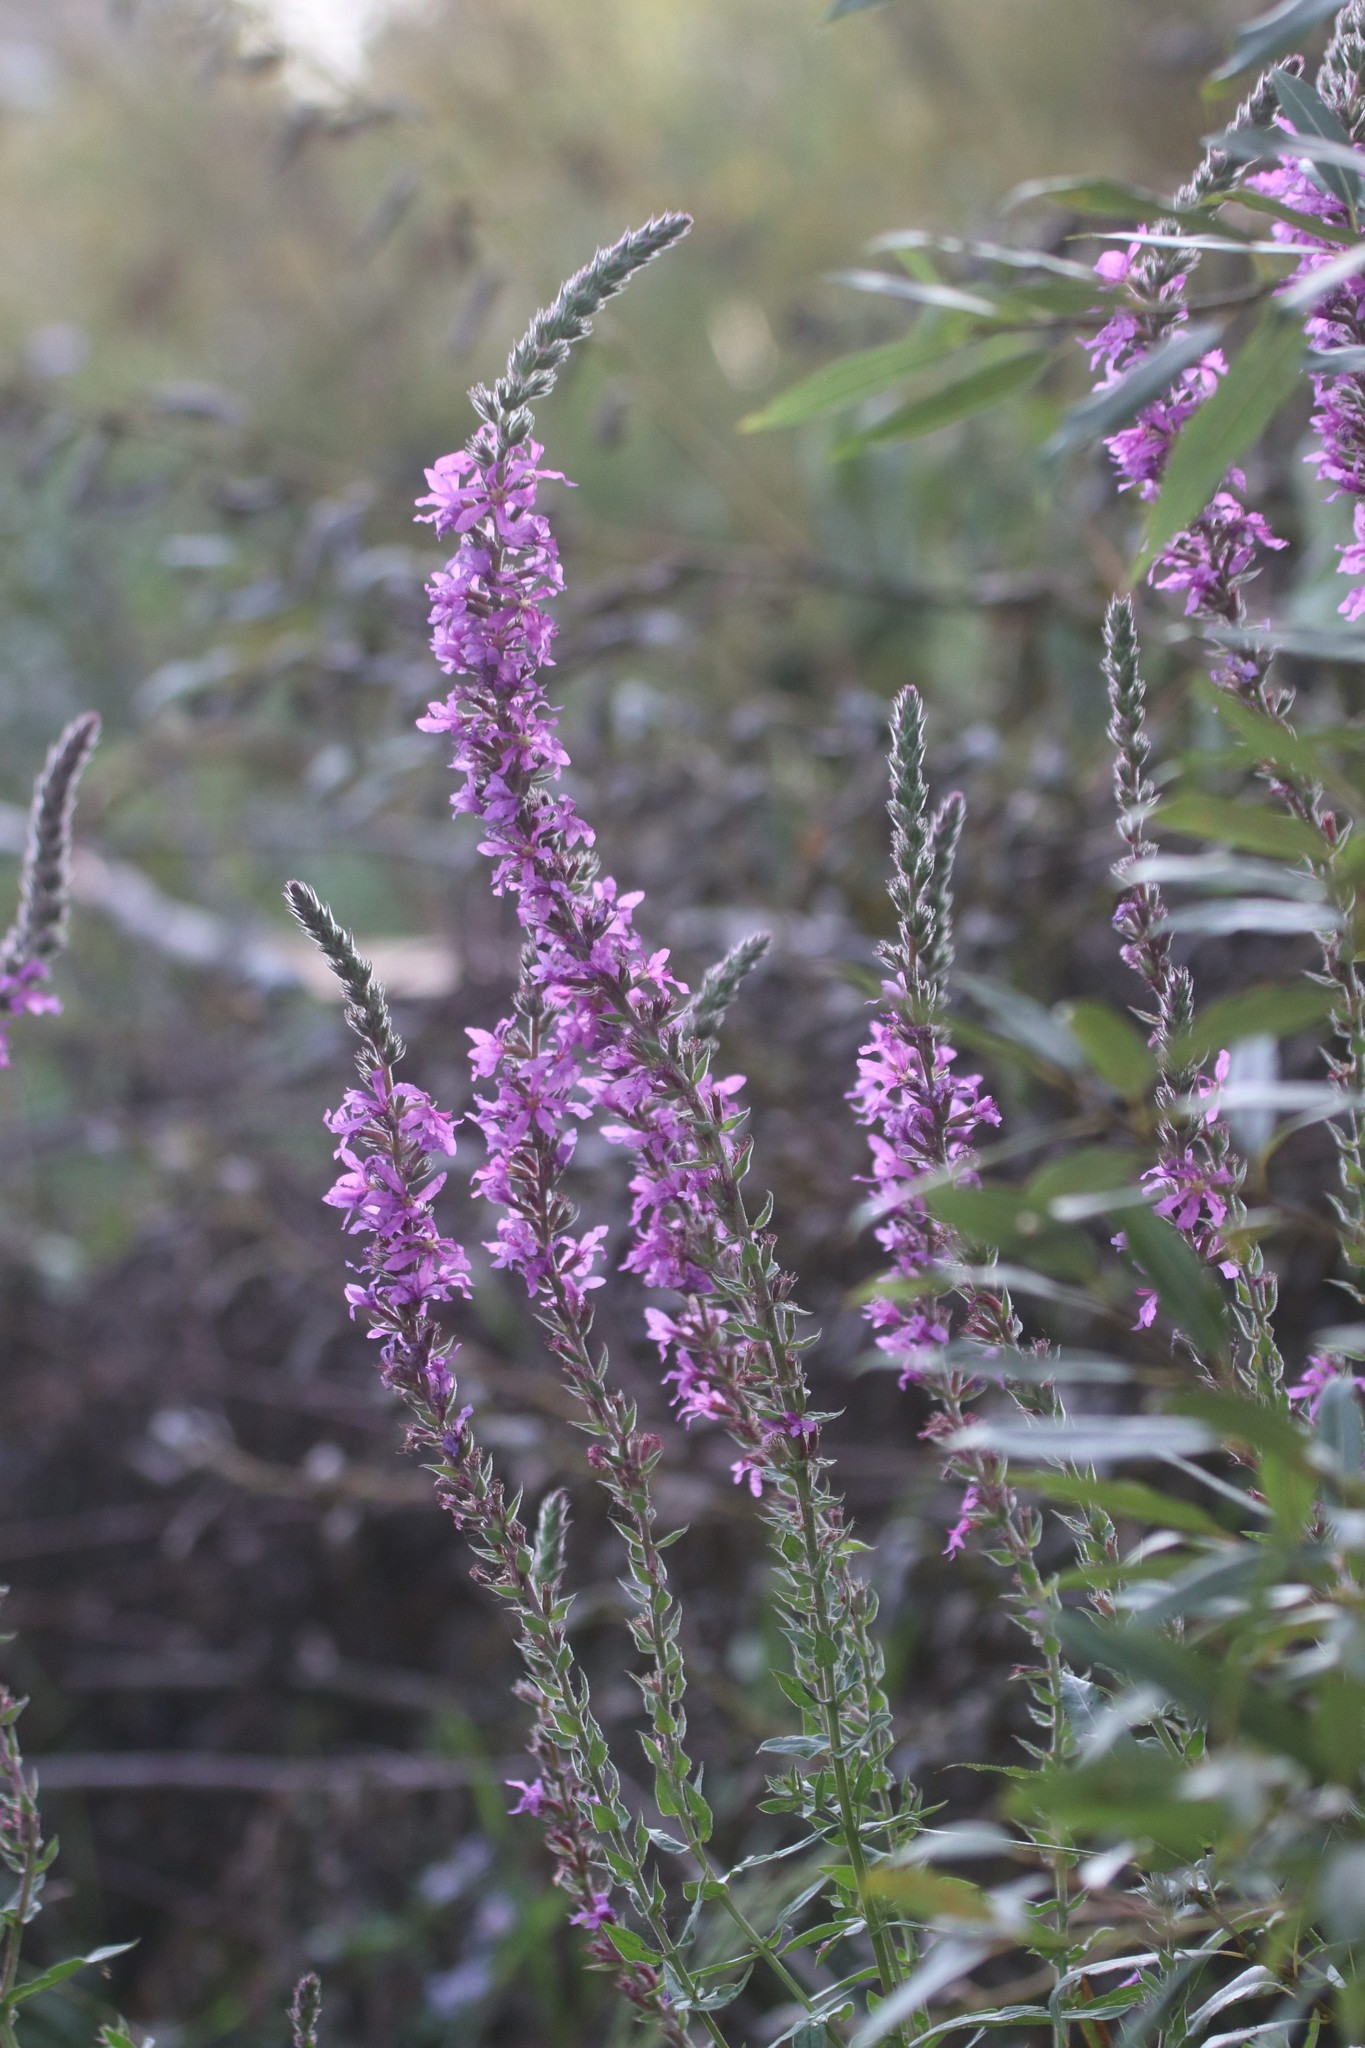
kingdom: Plantae
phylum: Tracheophyta
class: Magnoliopsida
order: Myrtales
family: Lythraceae
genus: Lythrum
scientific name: Lythrum salicaria
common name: Purple loosestrife
